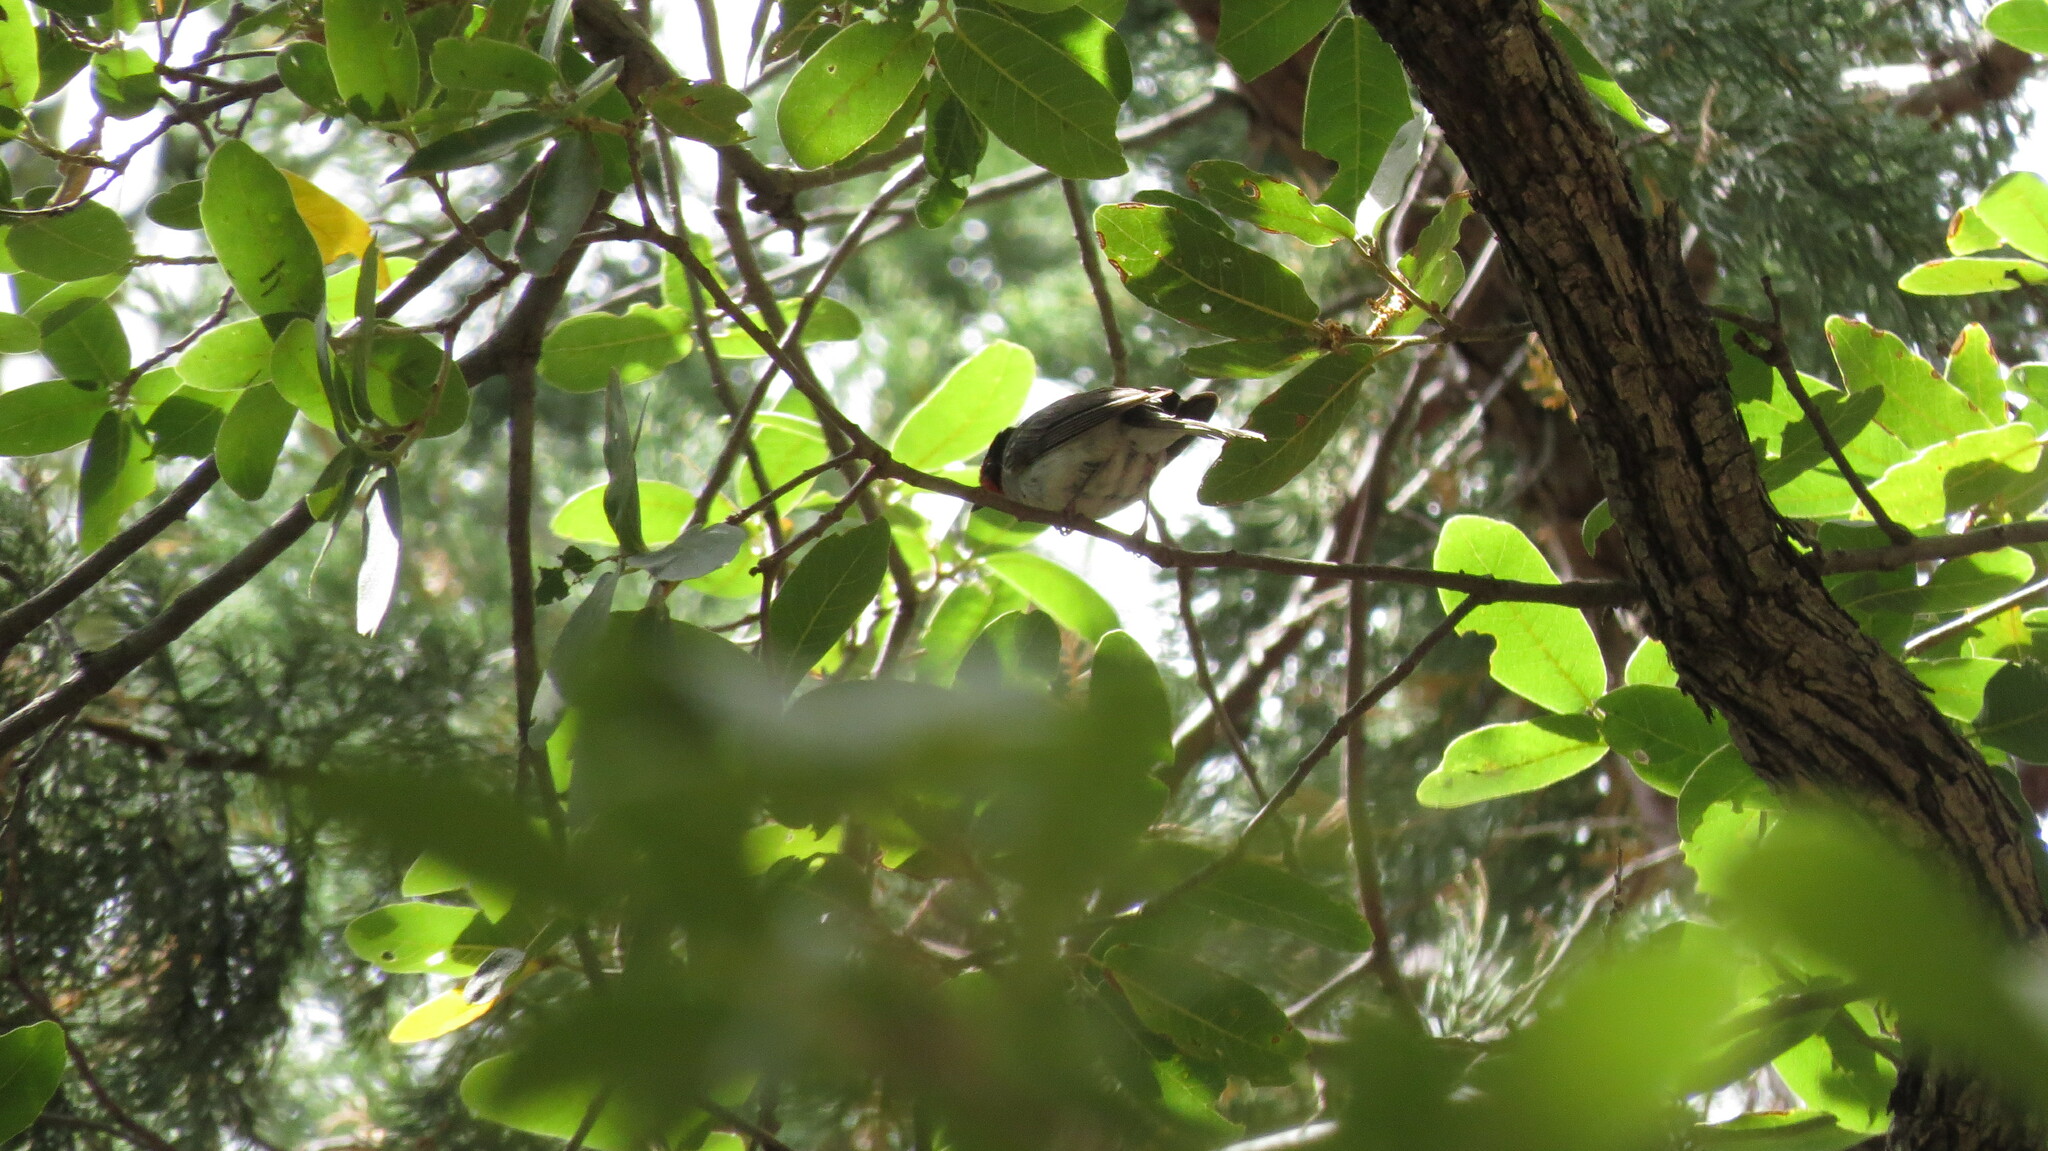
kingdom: Animalia
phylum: Chordata
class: Aves
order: Passeriformes
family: Parulidae
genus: Cardellina
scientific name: Cardellina rubrifrons
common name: Red-faced warbler
